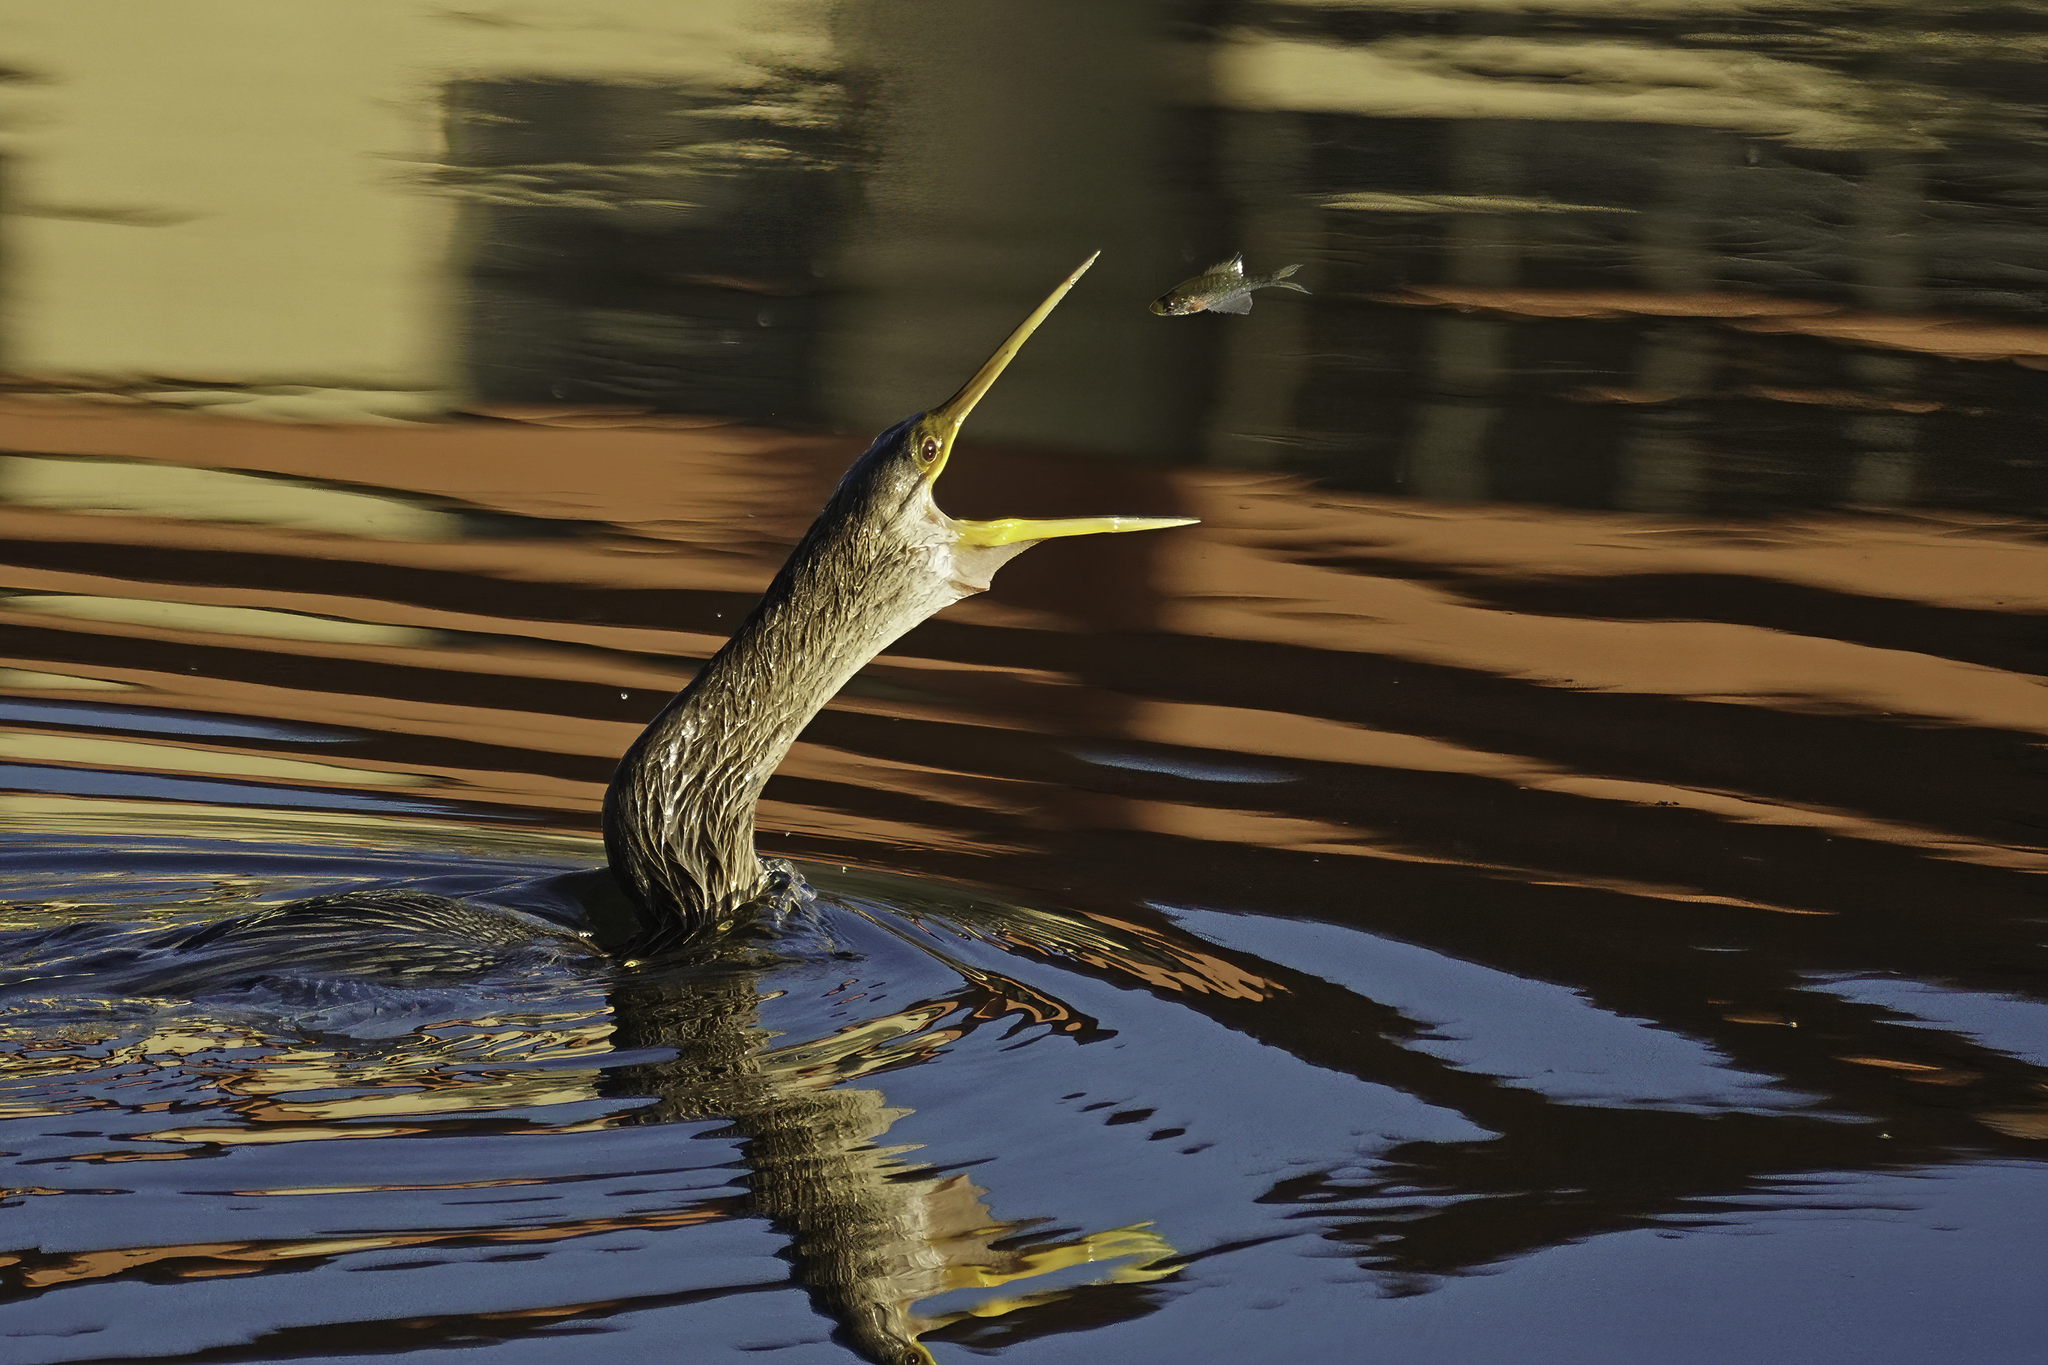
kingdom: Animalia
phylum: Chordata
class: Aves
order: Suliformes
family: Anhingidae
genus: Anhinga
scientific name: Anhinga anhinga
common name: Anhinga
